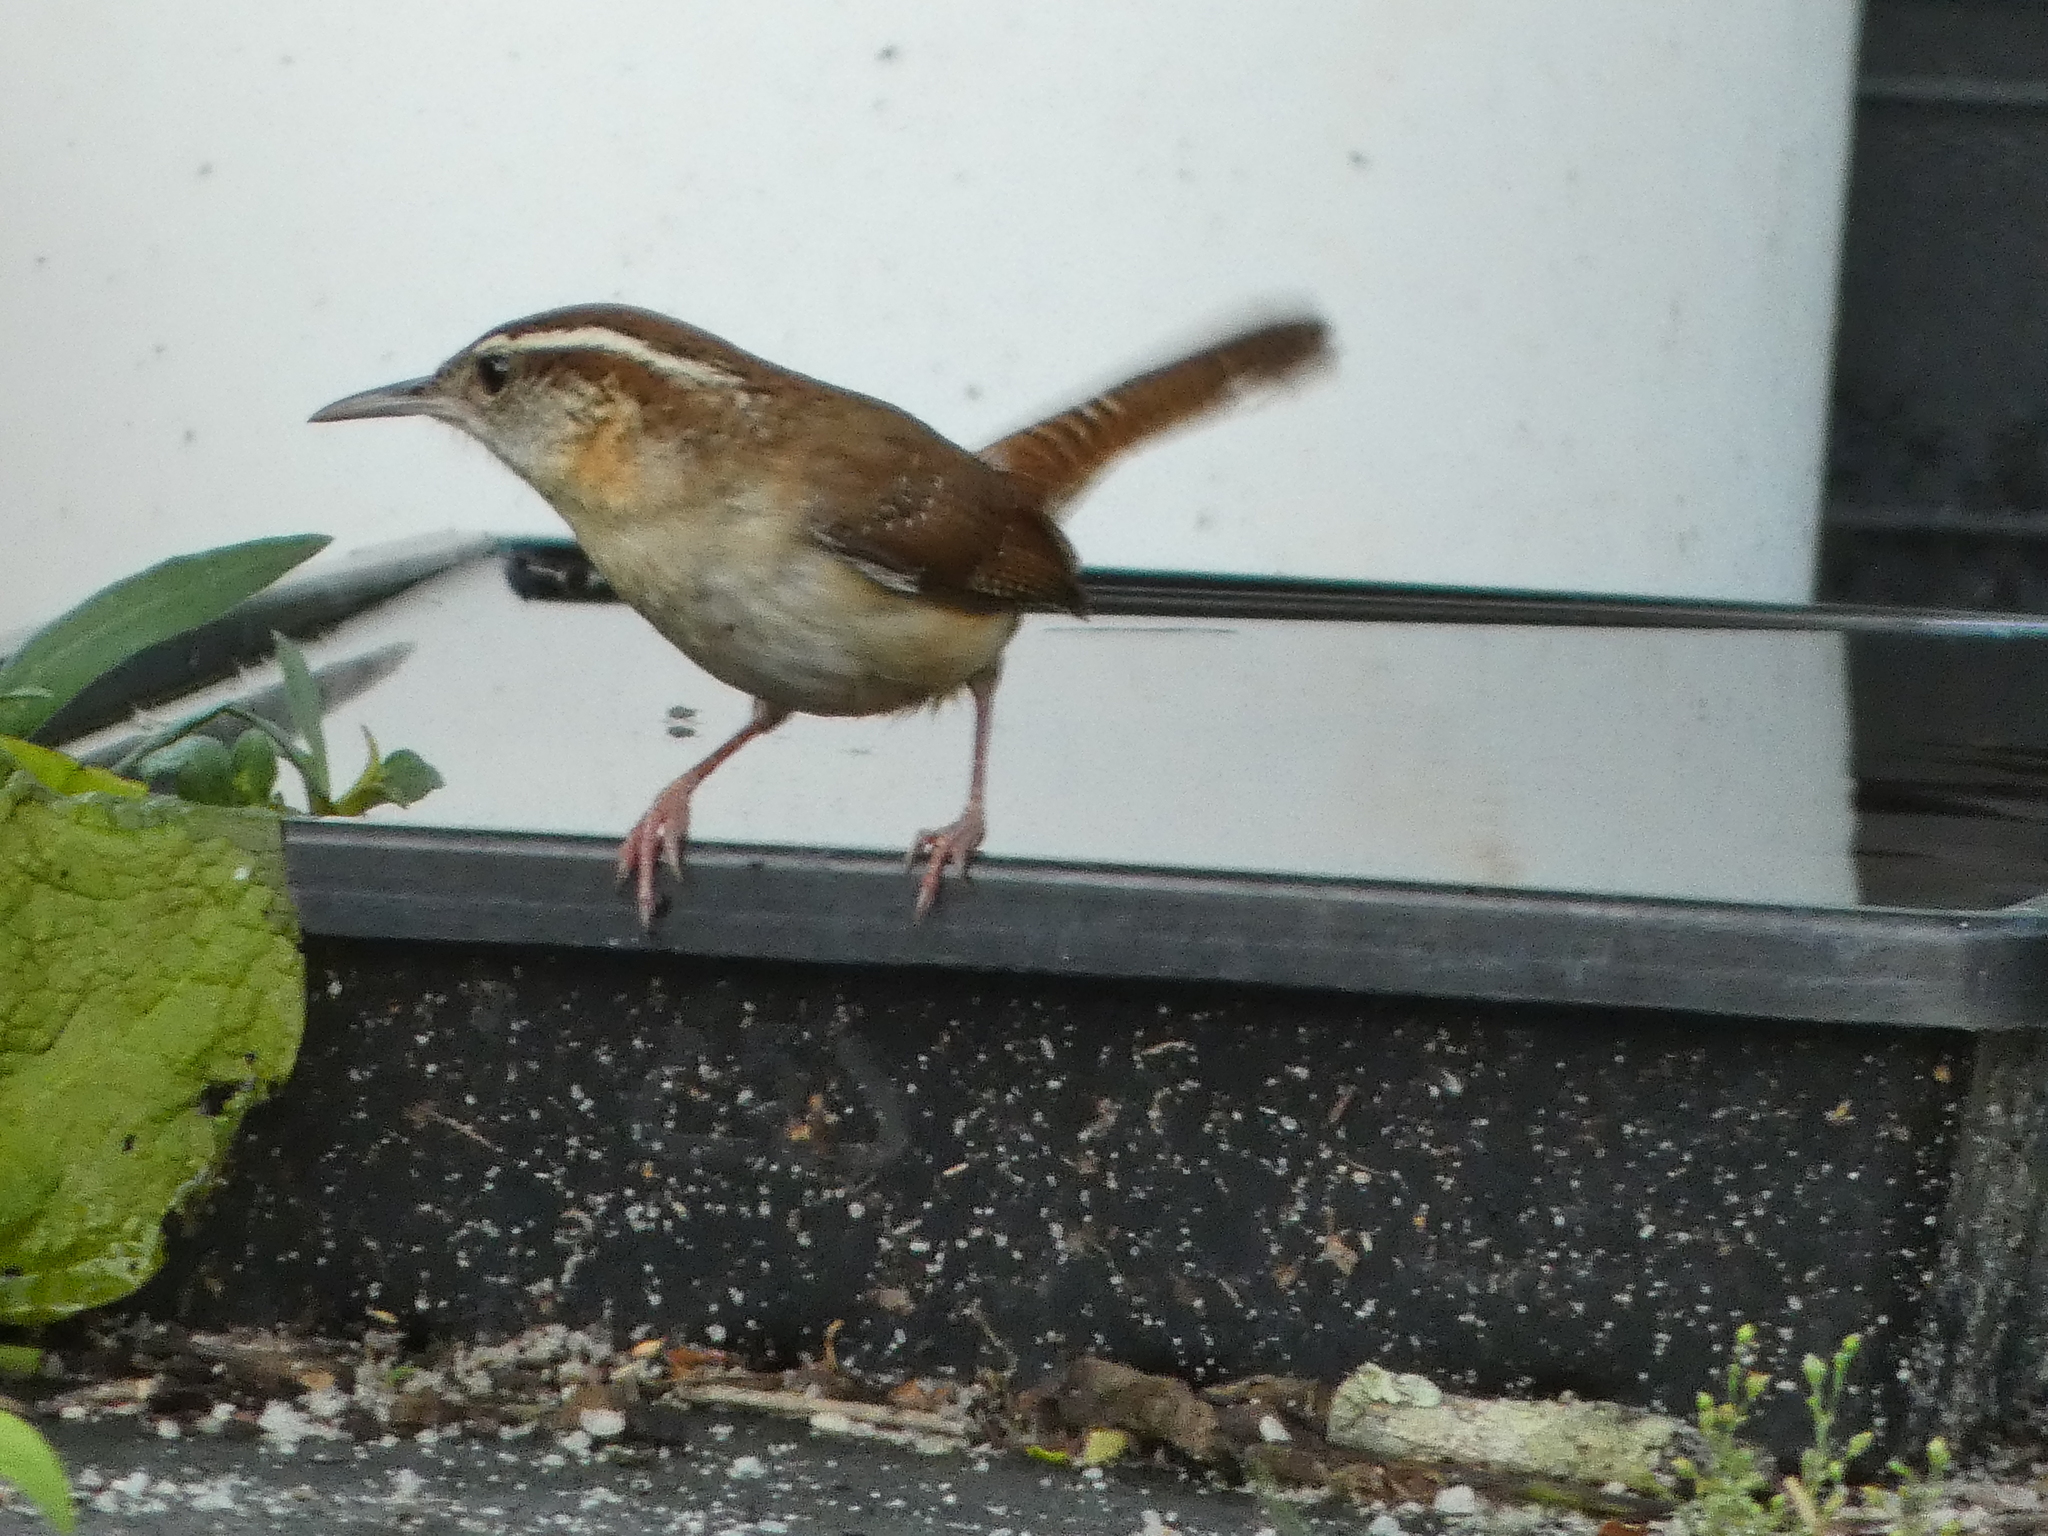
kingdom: Animalia
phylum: Chordata
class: Aves
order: Passeriformes
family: Troglodytidae
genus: Thryothorus
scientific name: Thryothorus ludovicianus
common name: Carolina wren
